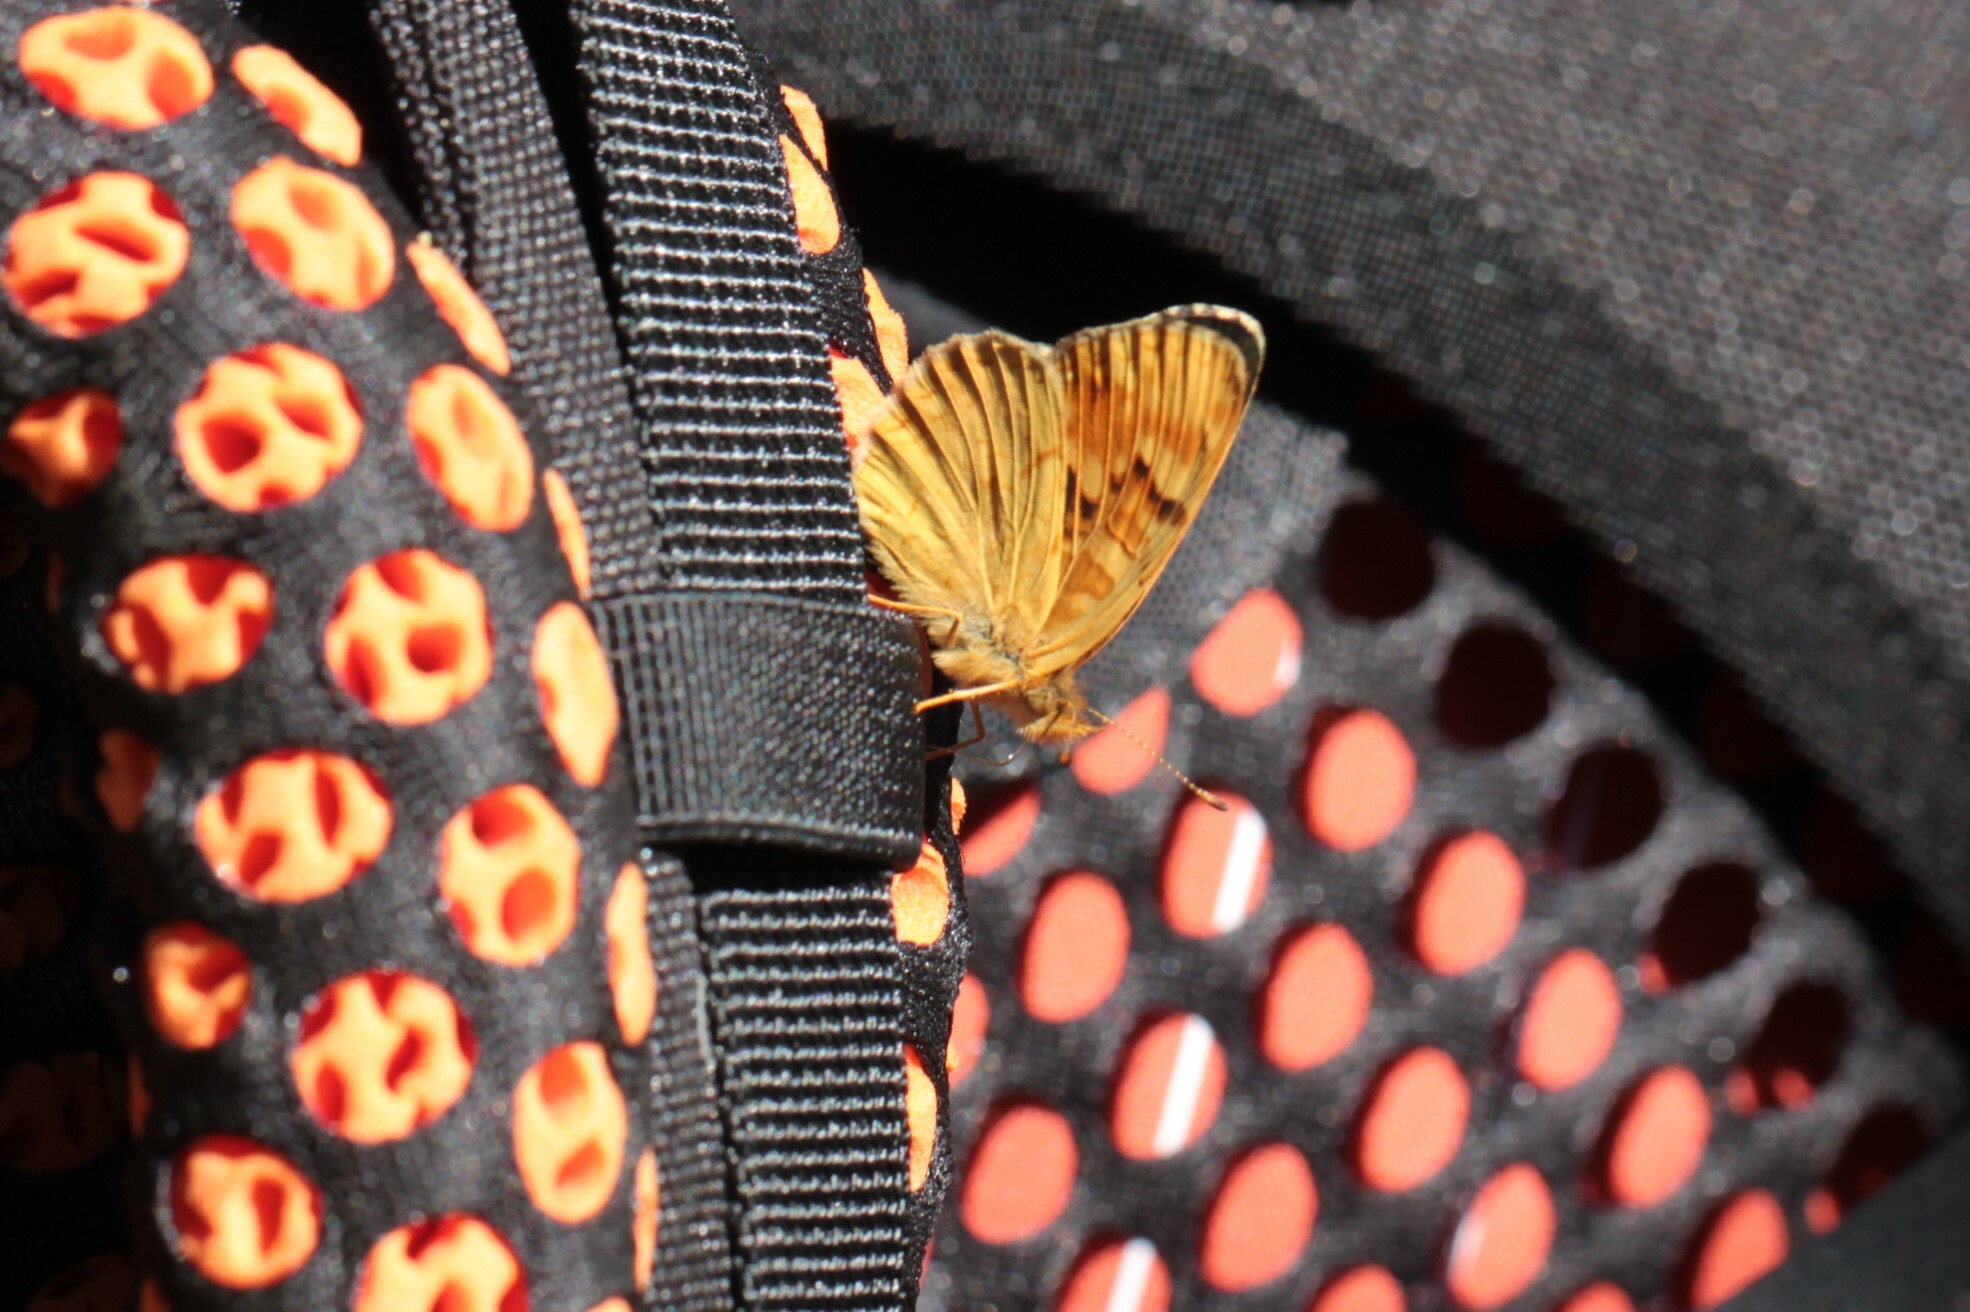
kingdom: Animalia
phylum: Arthropoda
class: Insecta
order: Lepidoptera
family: Nymphalidae
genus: Phyciodes
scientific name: Phyciodes tharos
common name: Pearl crescent
